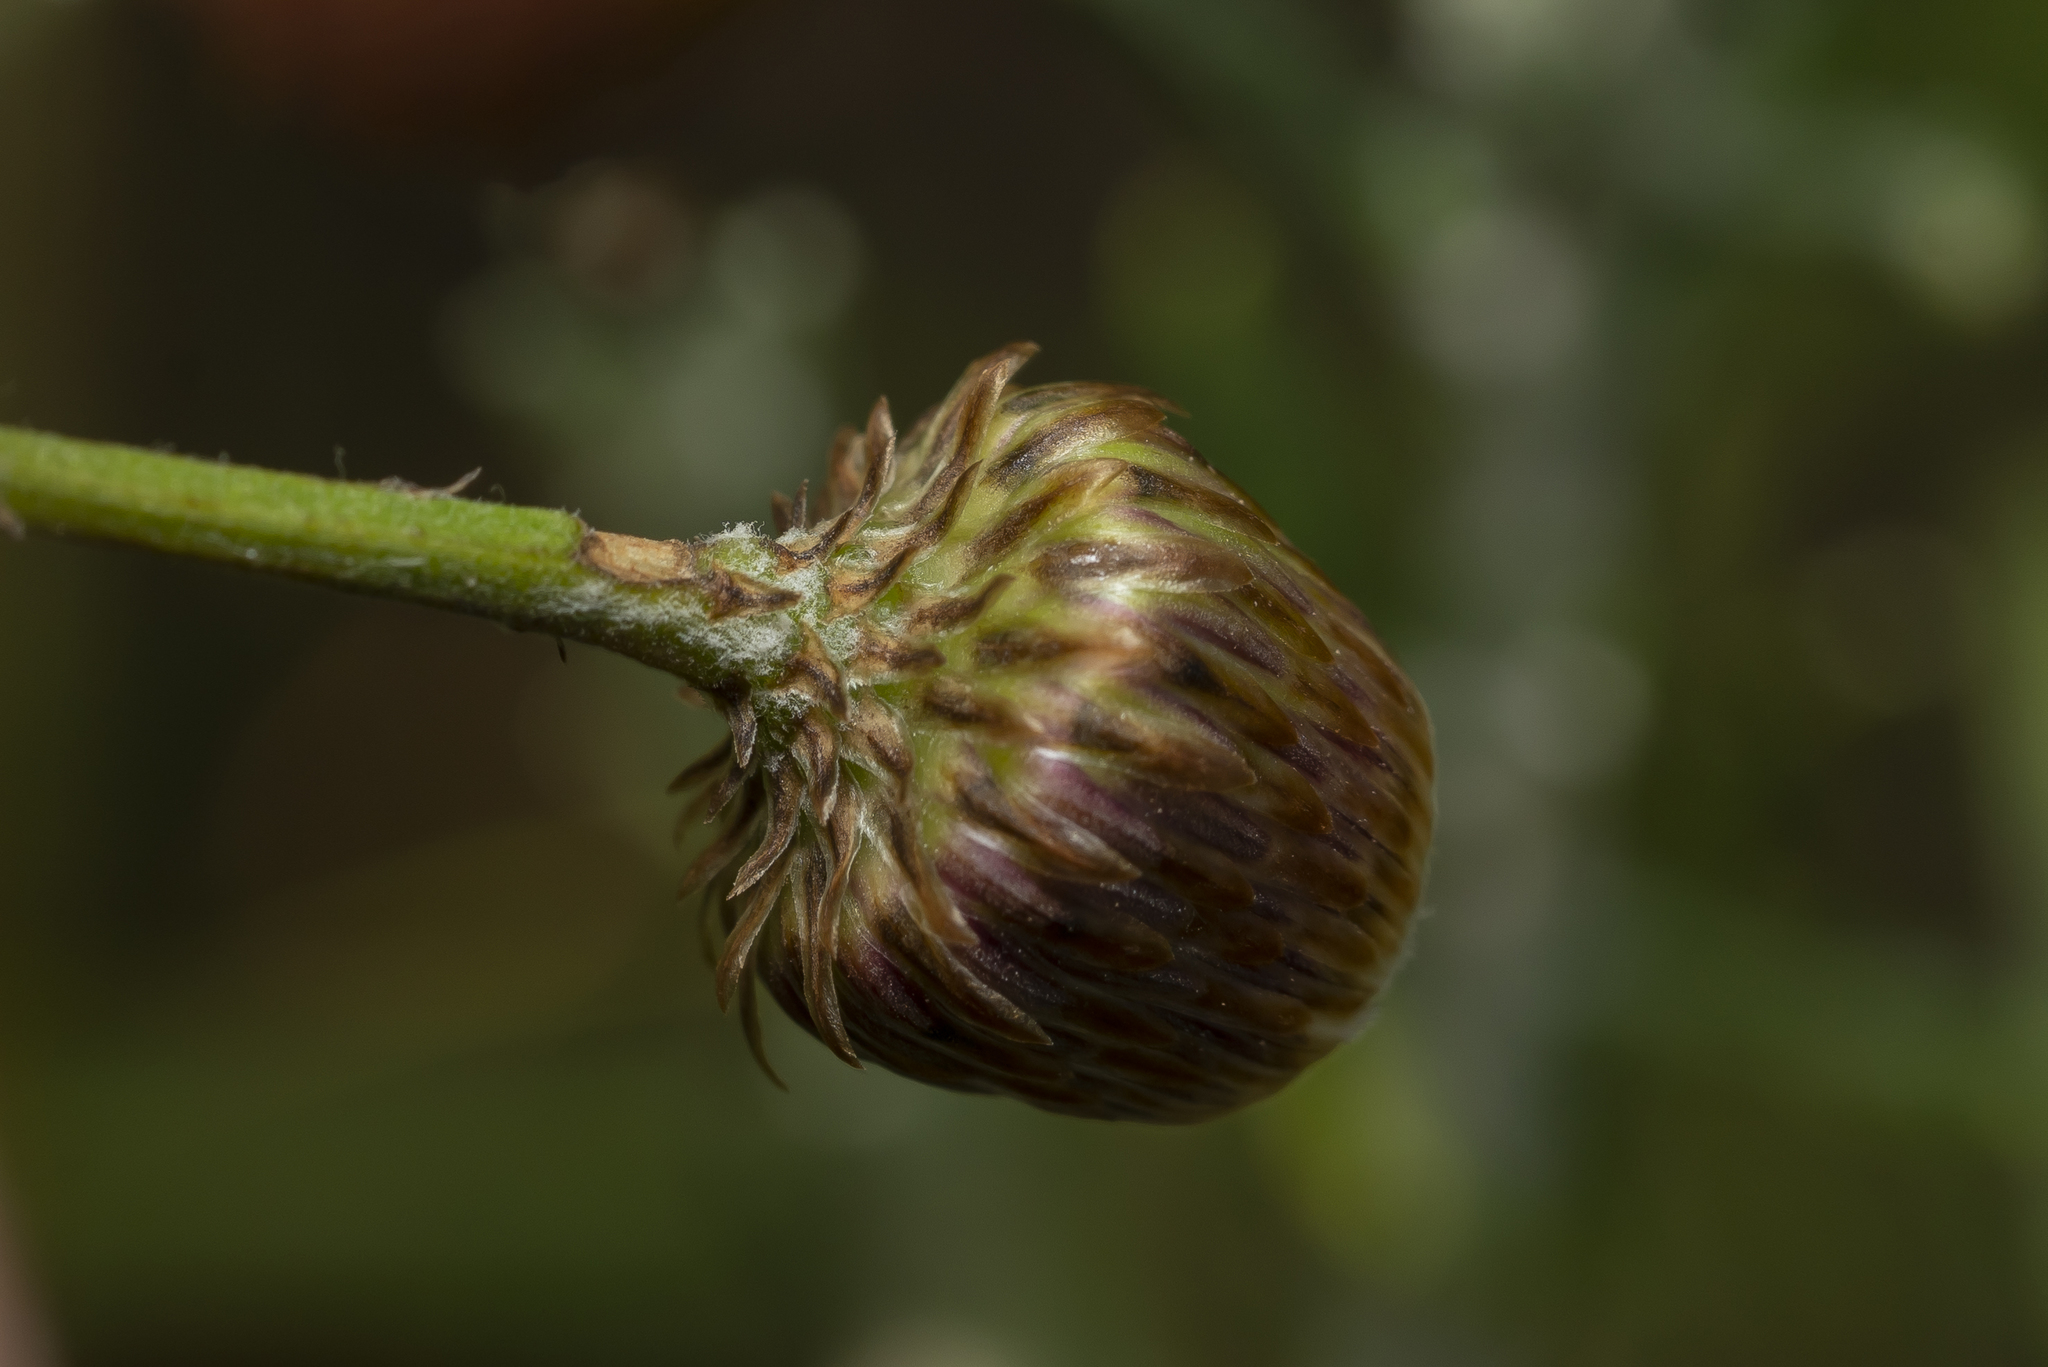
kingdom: Plantae
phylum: Tracheophyta
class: Magnoliopsida
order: Asterales
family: Asteraceae
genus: Phagnalon
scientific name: Phagnalon graecum
